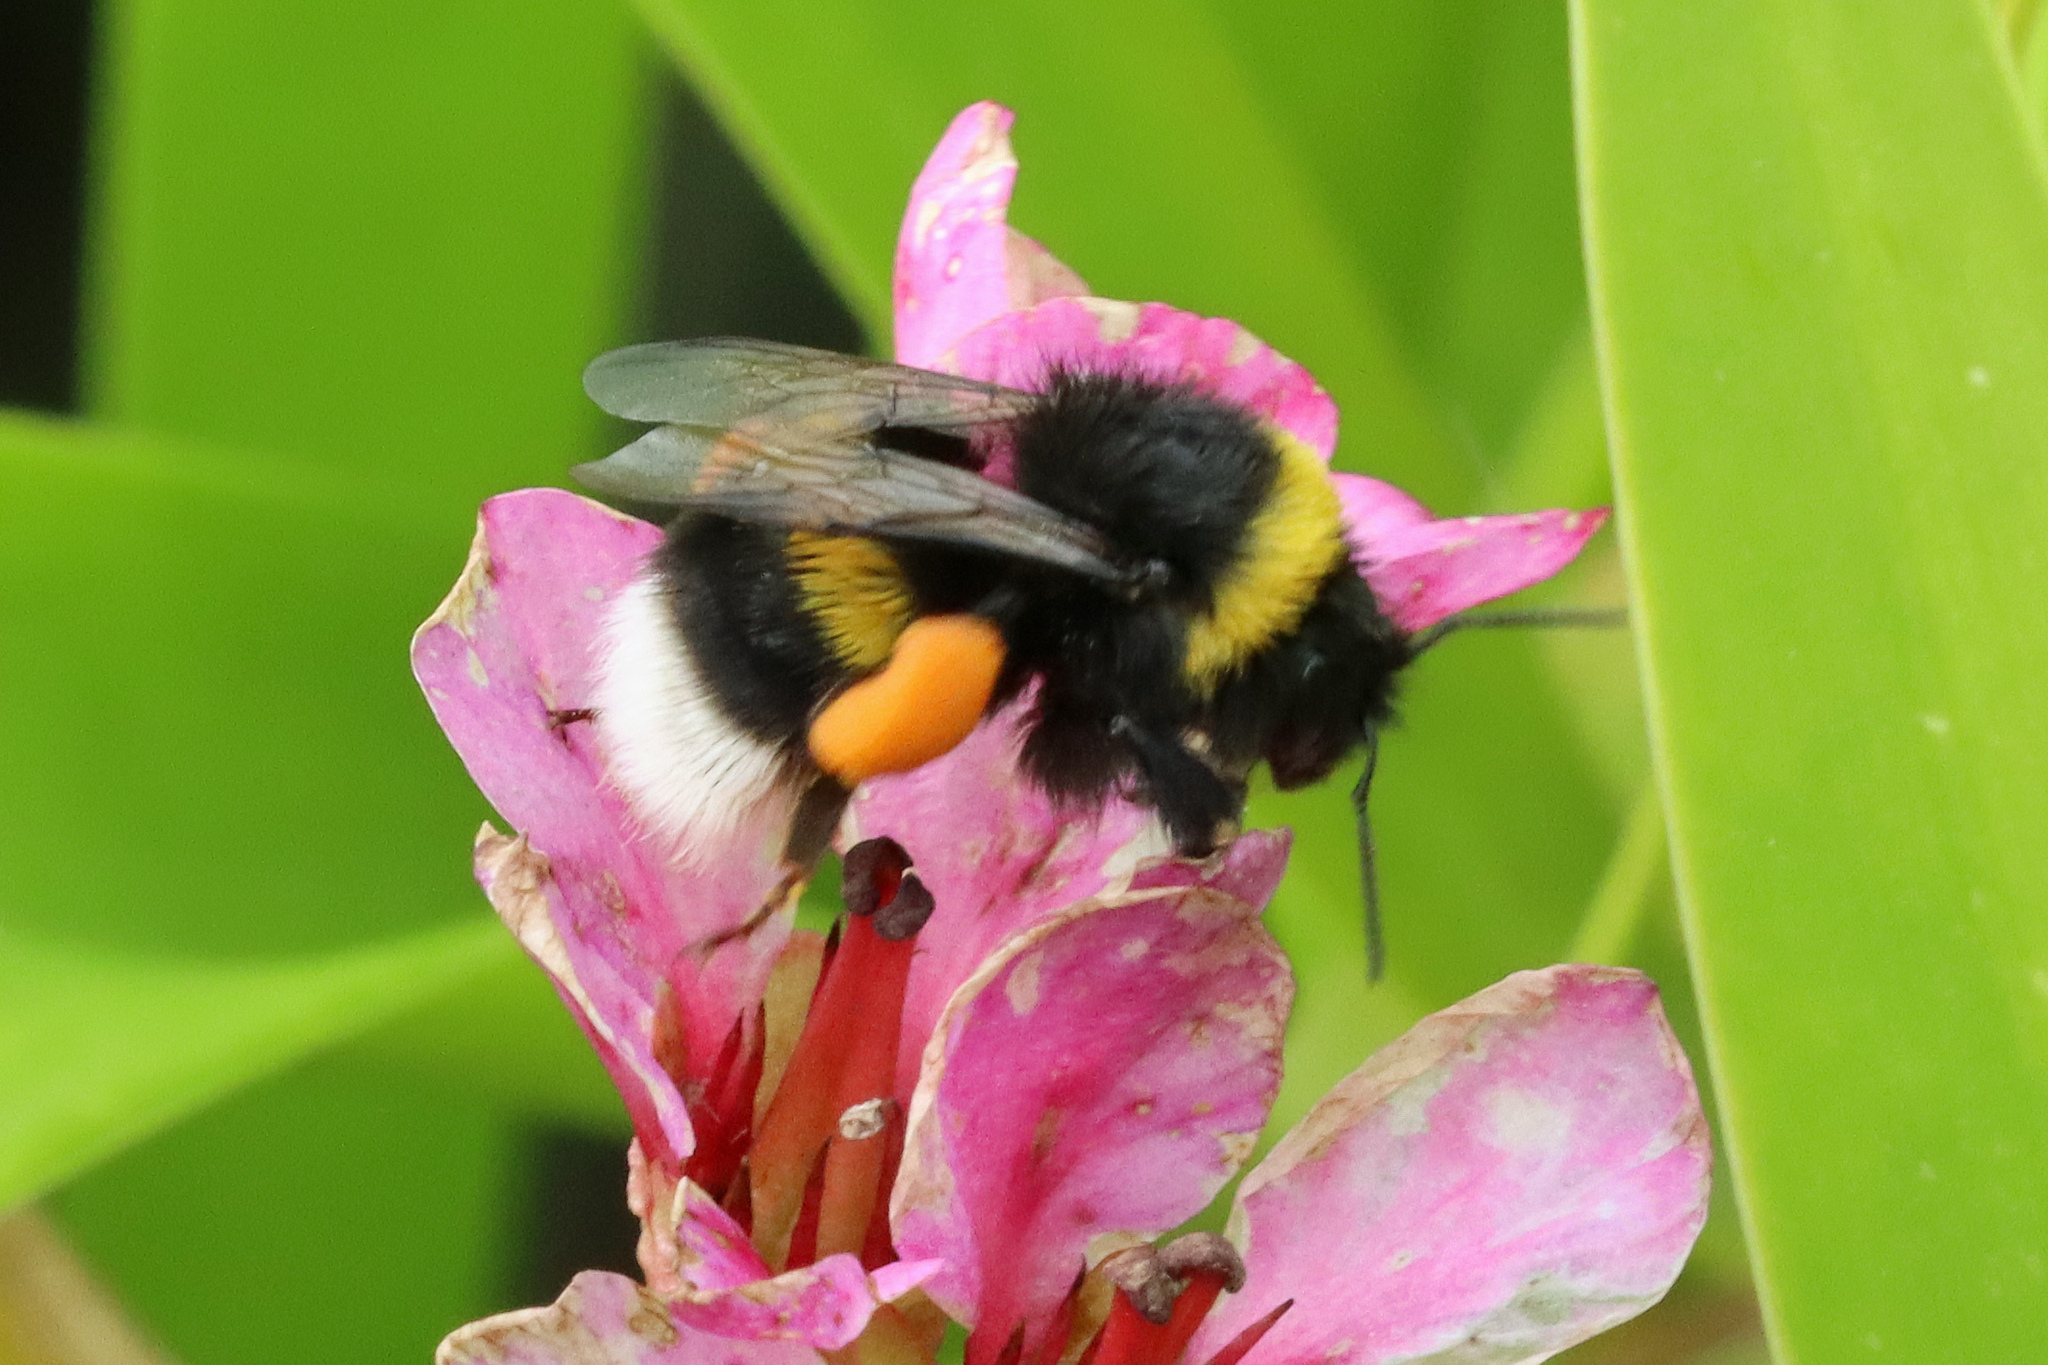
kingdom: Animalia
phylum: Arthropoda
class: Insecta
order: Hymenoptera
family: Apidae
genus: Bombus
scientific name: Bombus terrestris
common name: Buff-tailed bumblebee
